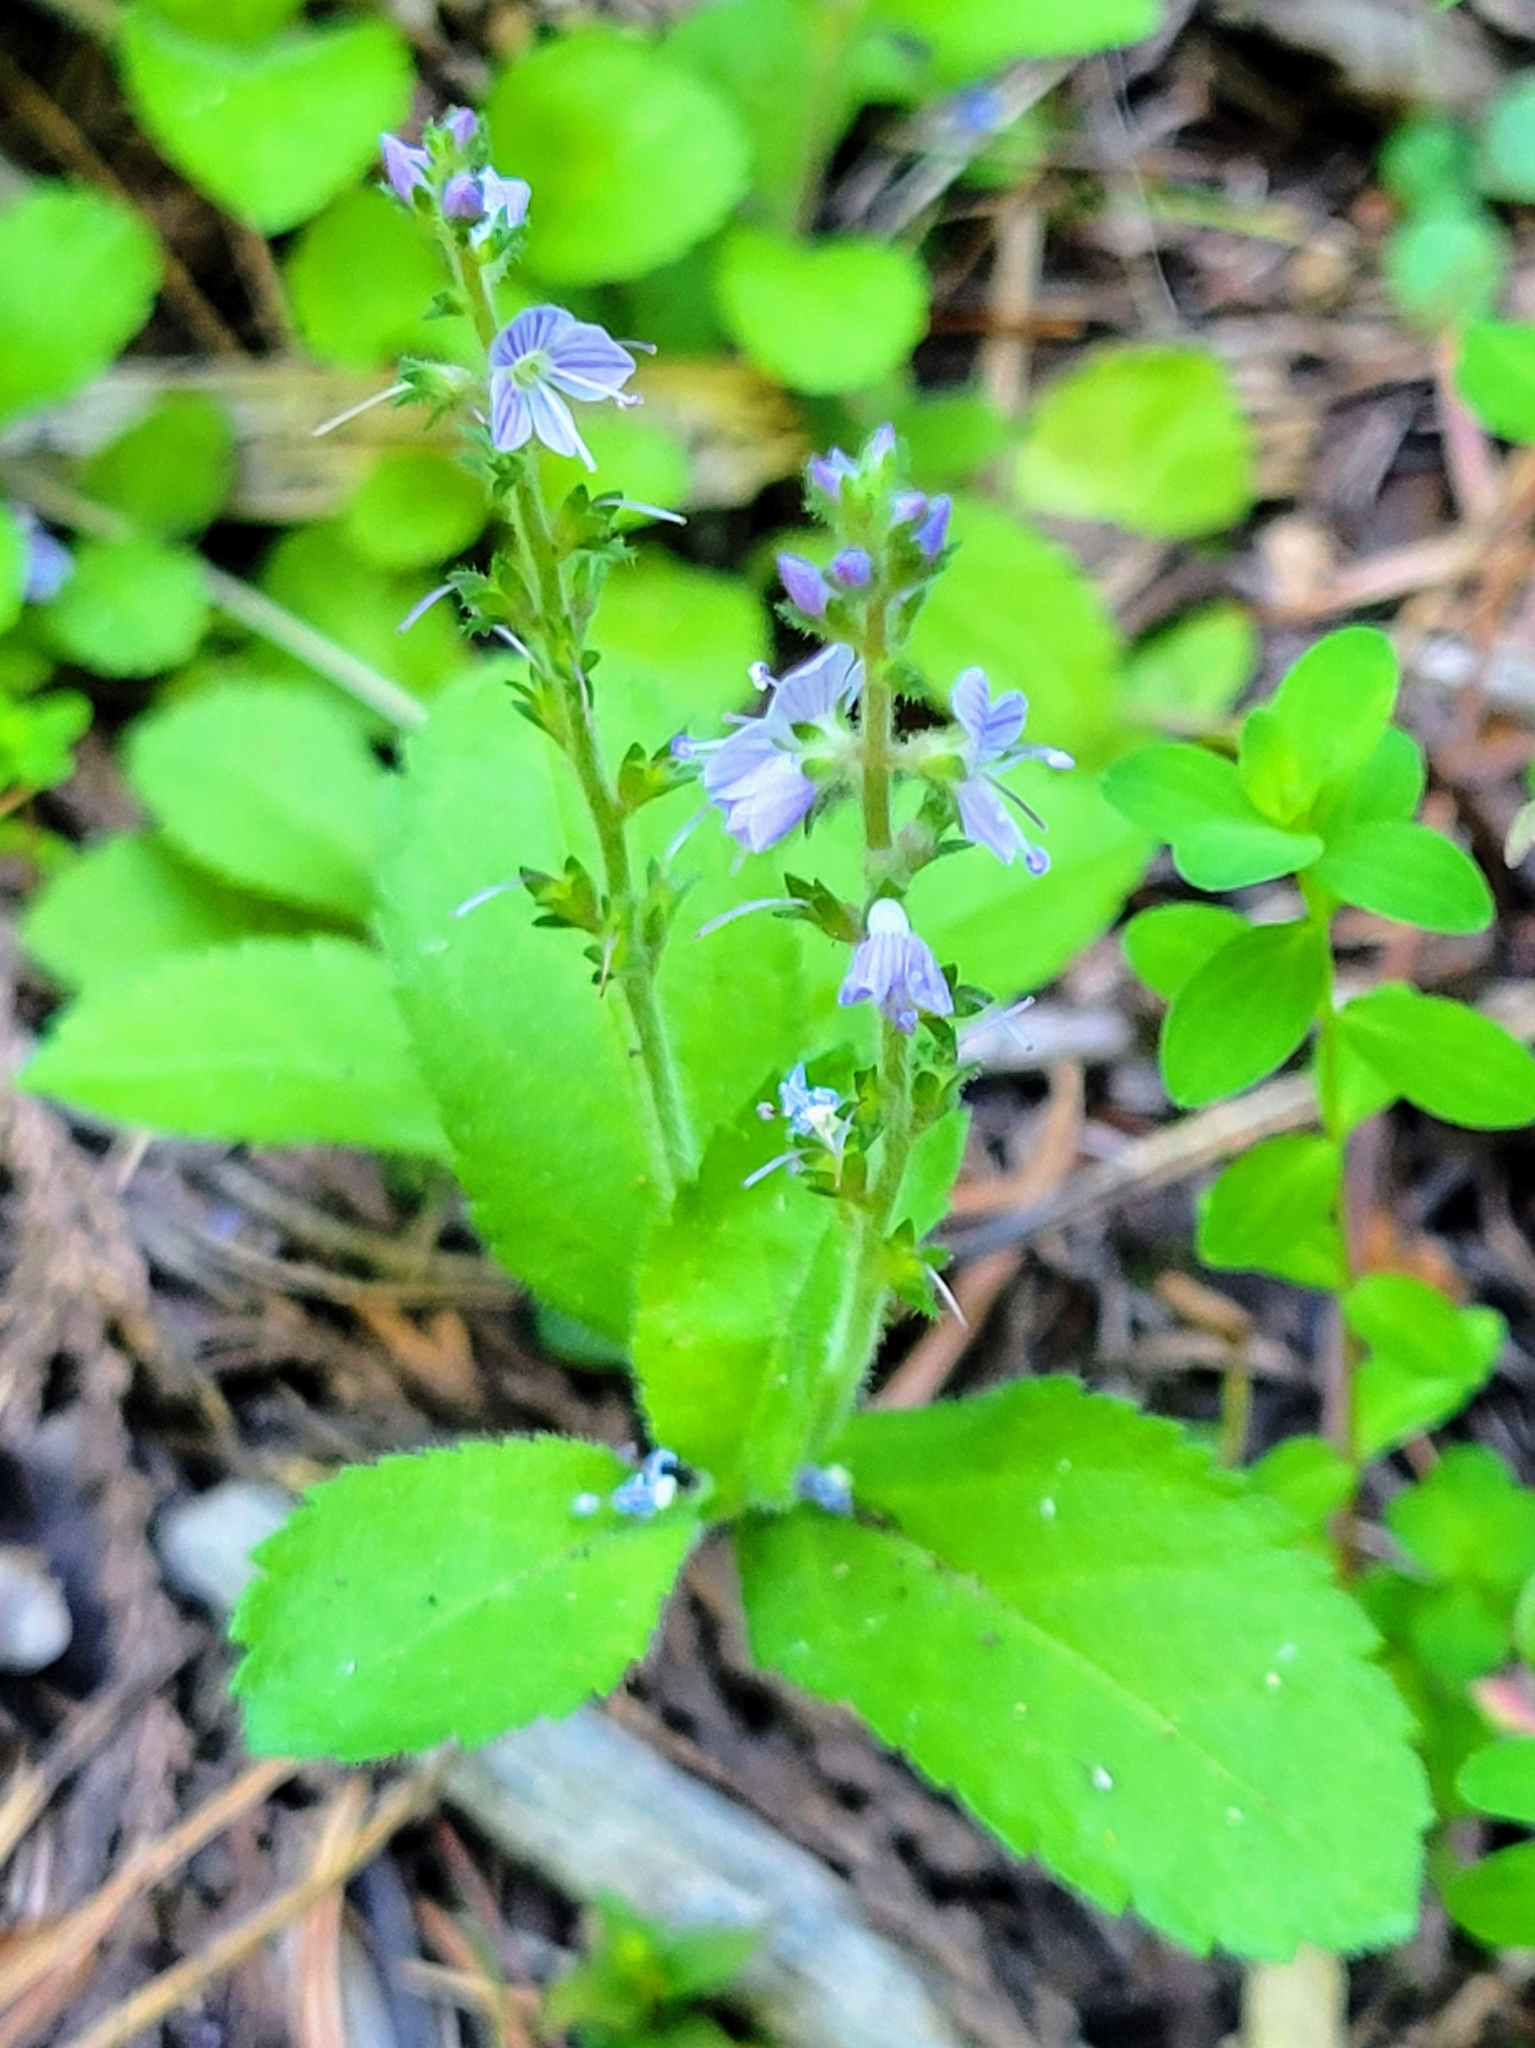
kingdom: Plantae
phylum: Tracheophyta
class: Magnoliopsida
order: Lamiales
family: Plantaginaceae
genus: Veronica
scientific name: Veronica officinalis
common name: Common speedwell
